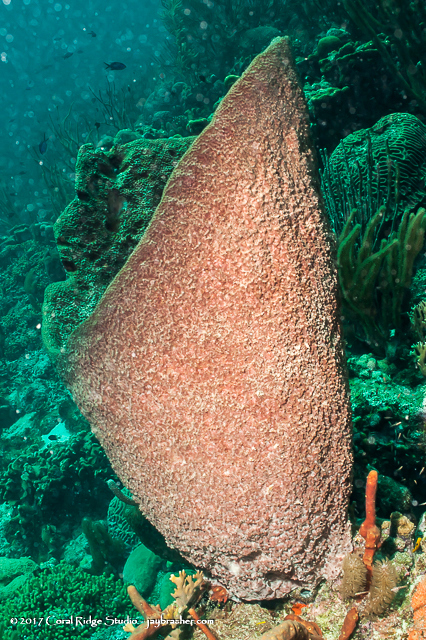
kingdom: Animalia
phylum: Porifera
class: Demospongiae
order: Dictyoceratida
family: Irciniidae
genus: Ircinia
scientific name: Ircinia campana
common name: Vase sponge
